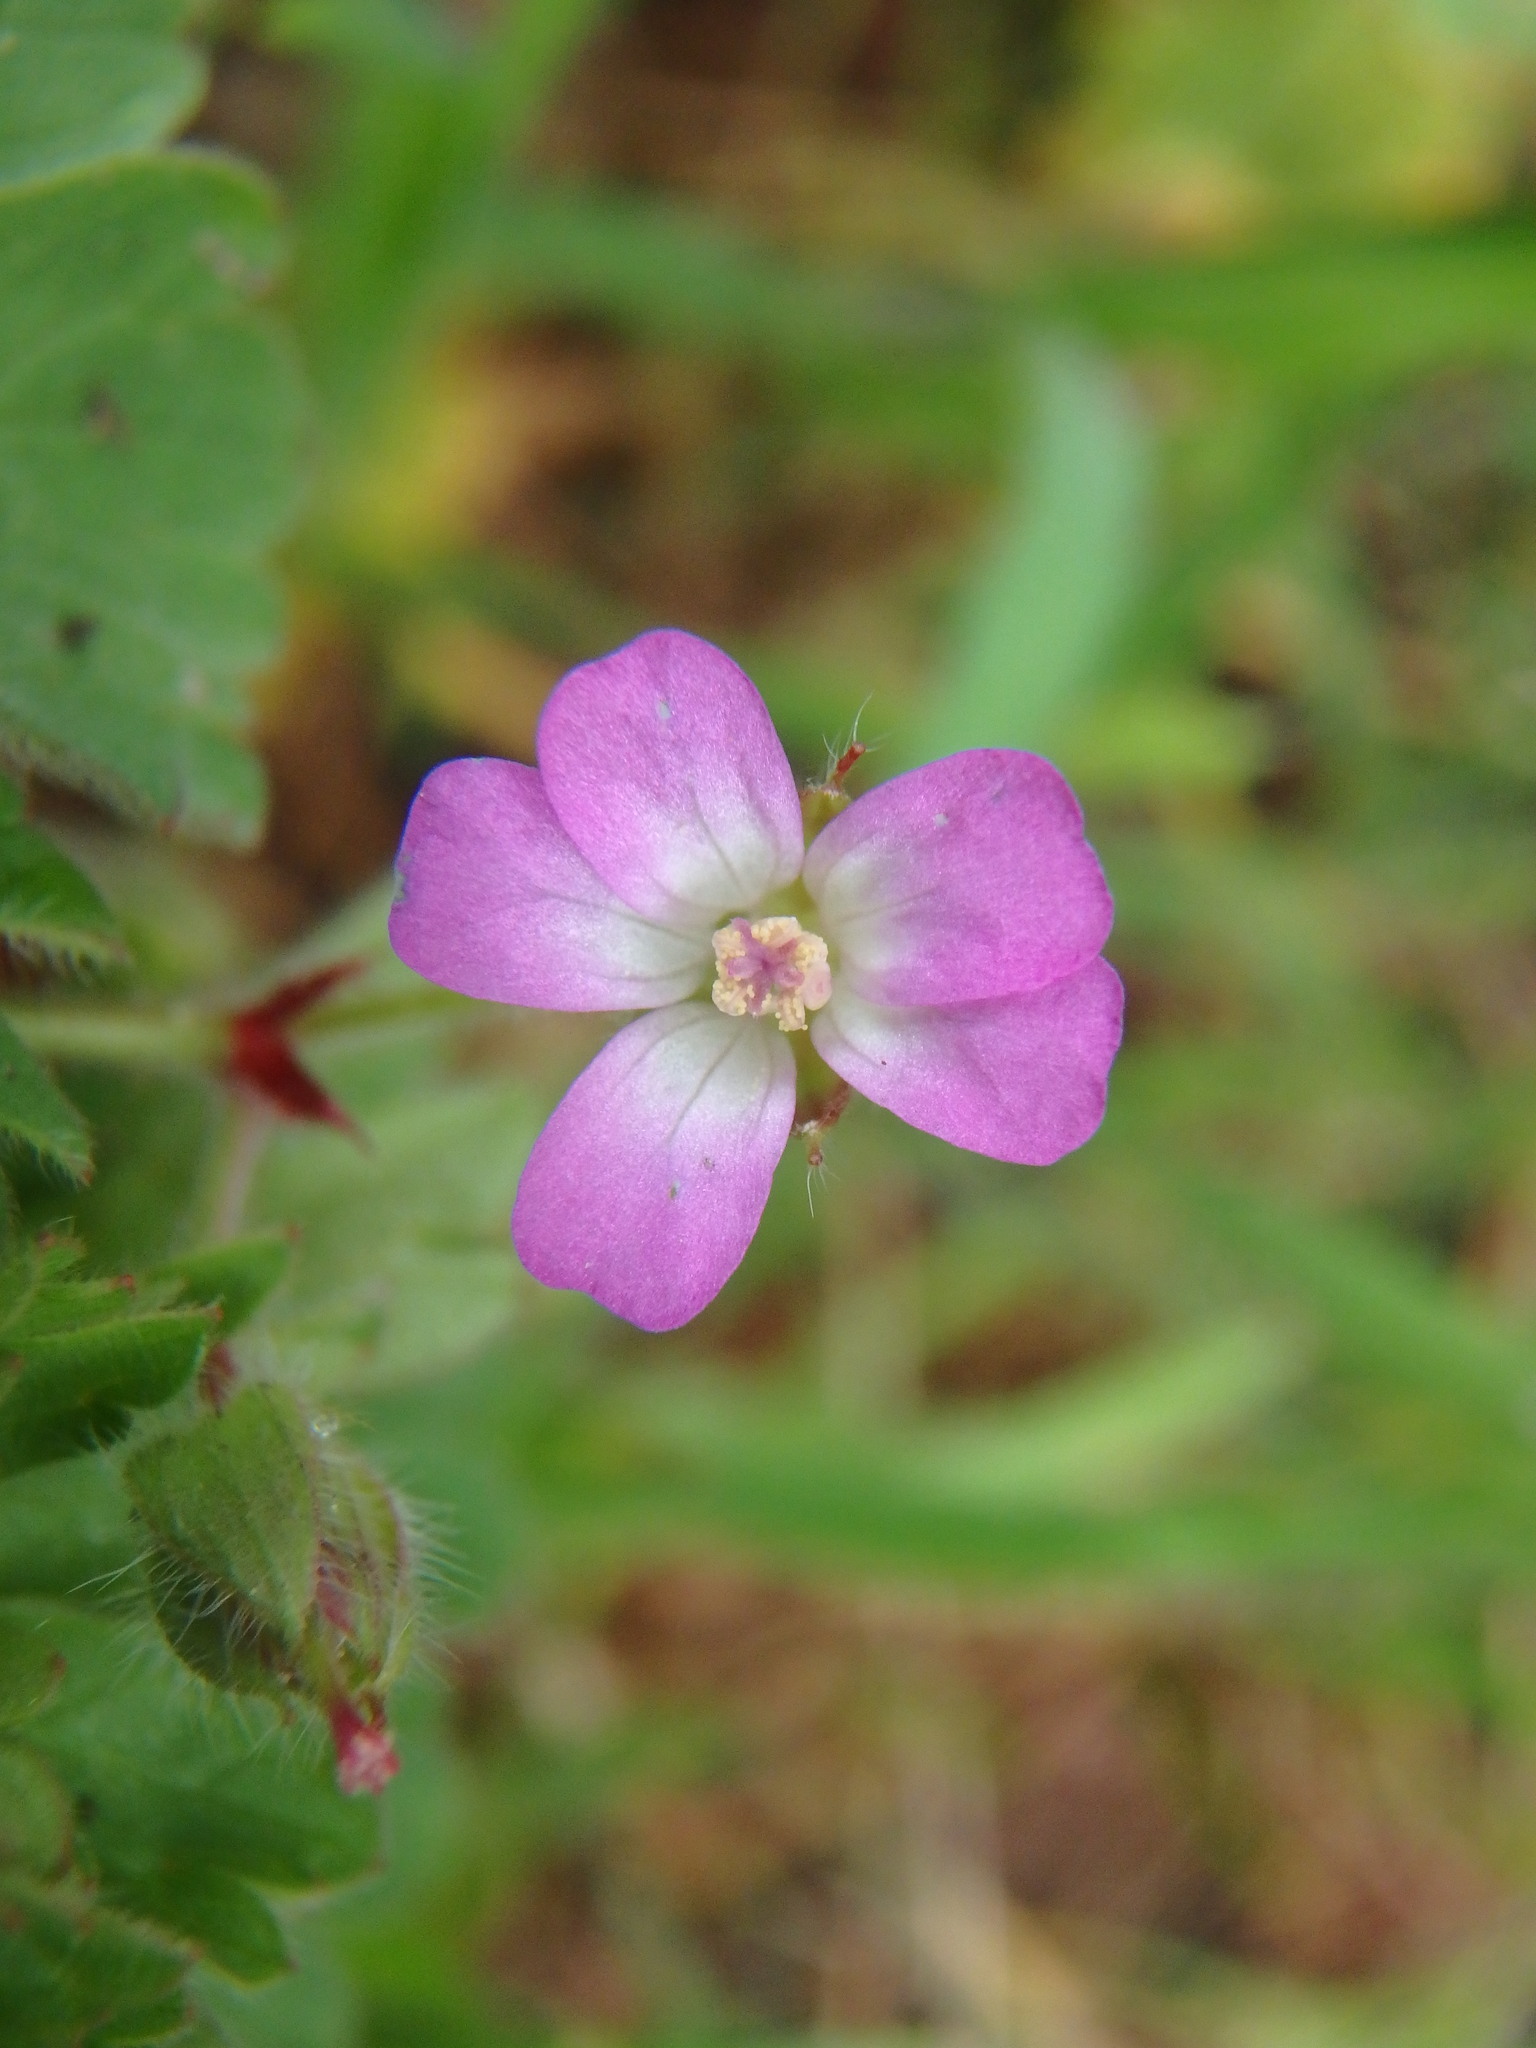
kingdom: Plantae
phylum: Tracheophyta
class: Magnoliopsida
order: Geraniales
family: Geraniaceae
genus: Geranium
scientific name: Geranium rotundifolium
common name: Round-leaved crane's-bill
